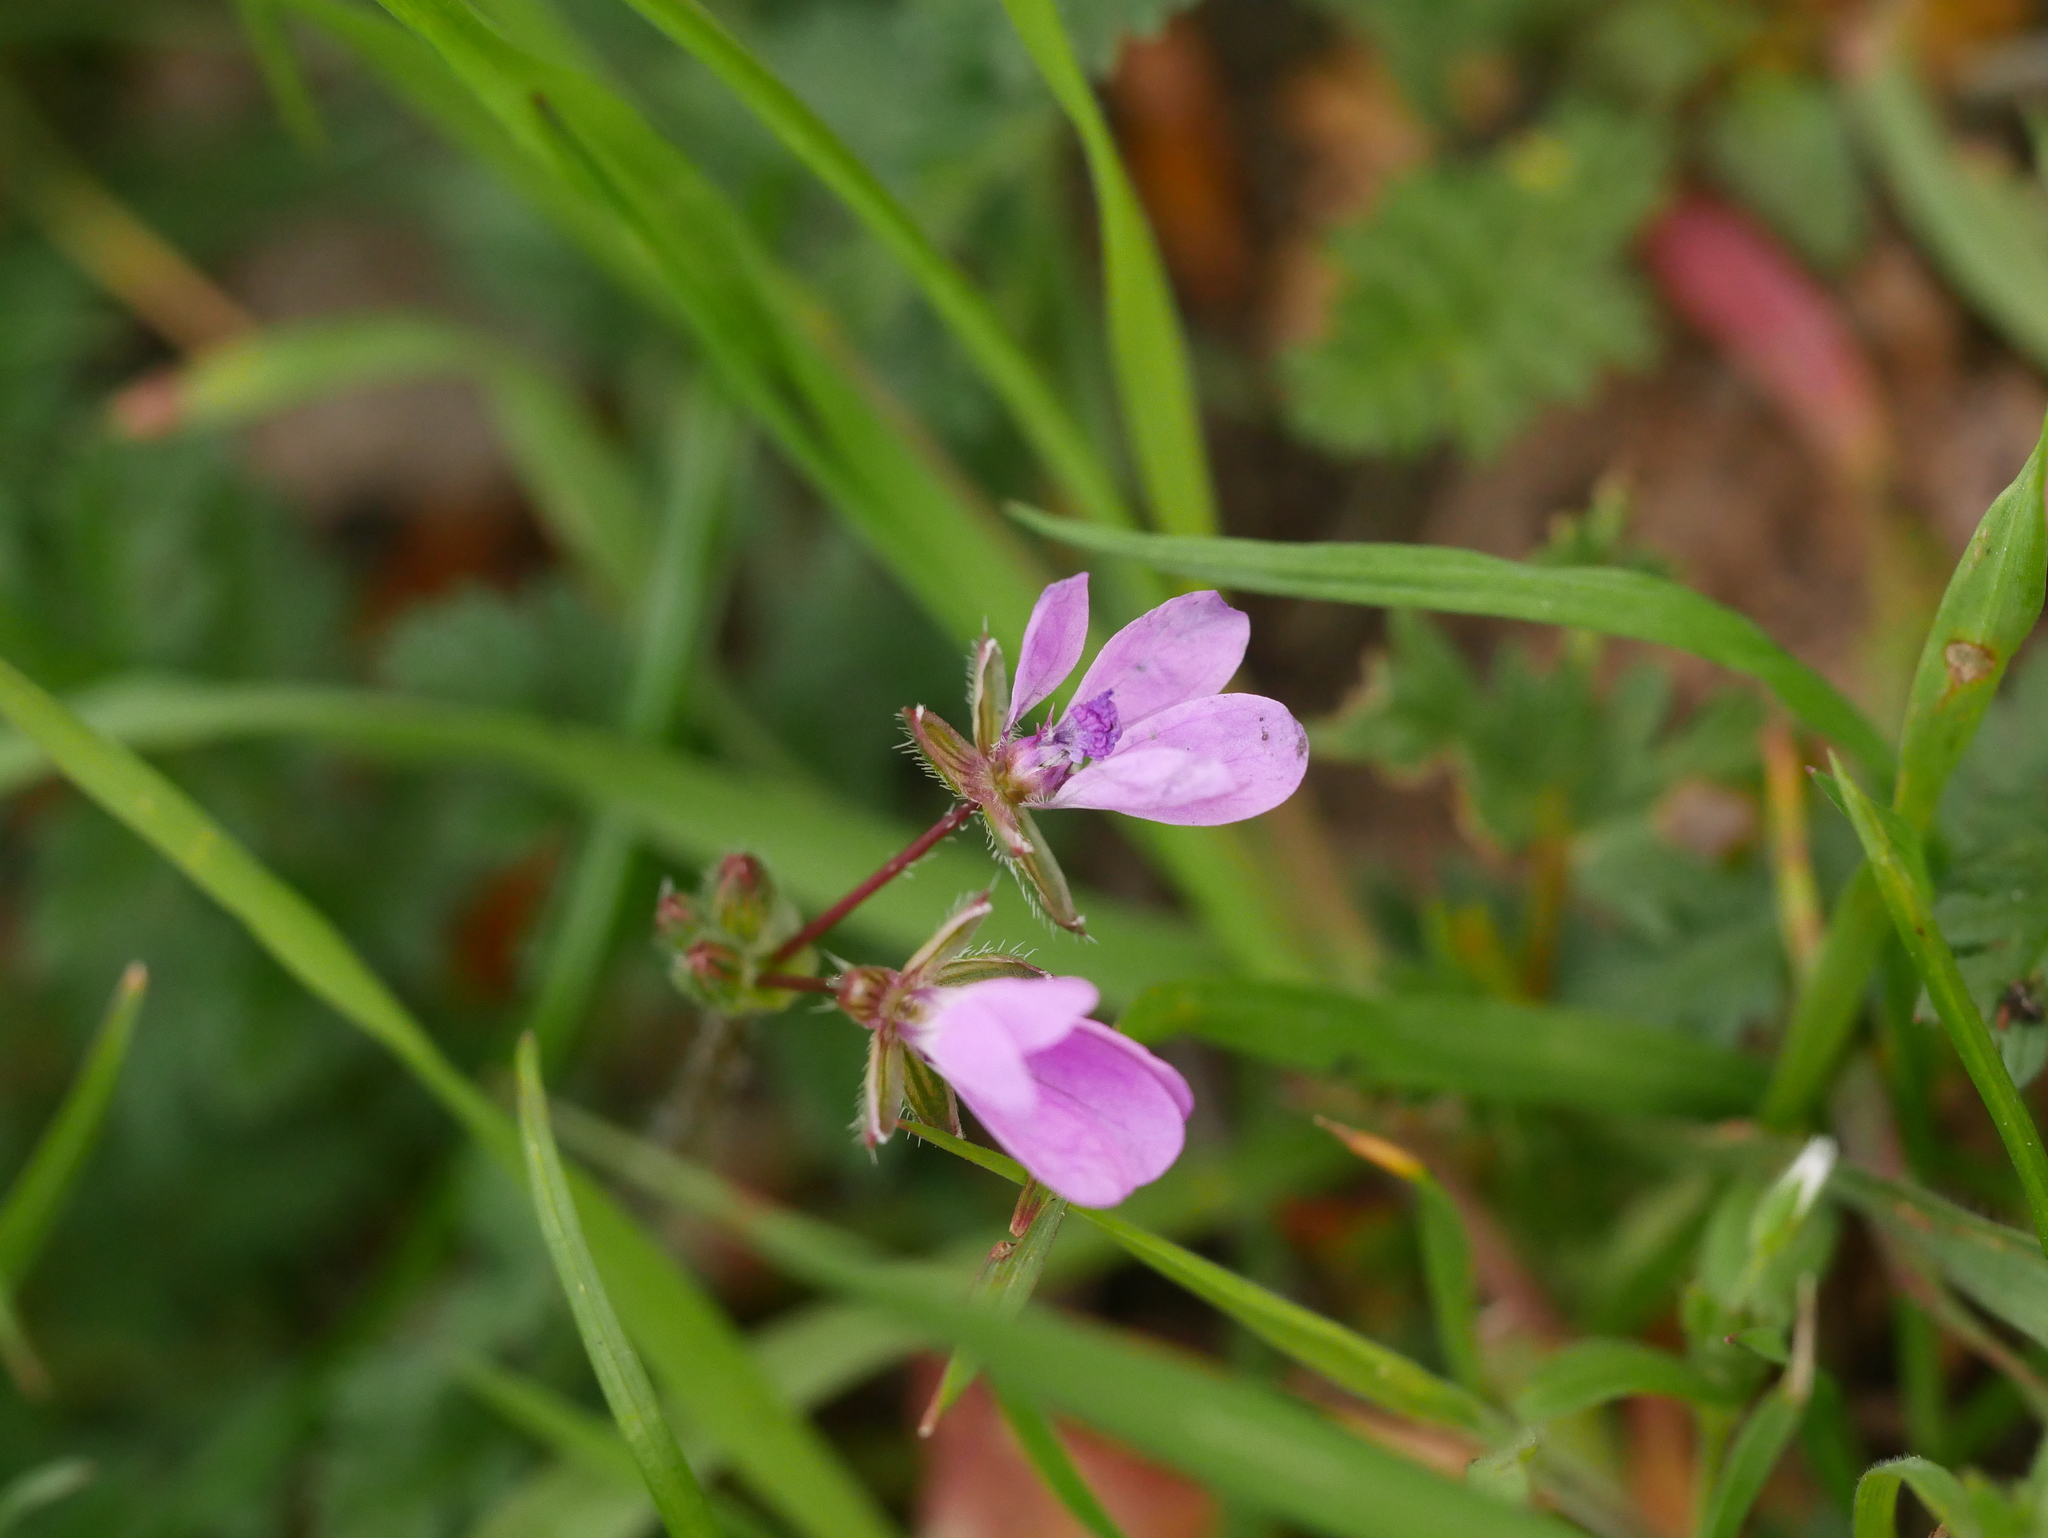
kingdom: Plantae
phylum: Tracheophyta
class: Magnoliopsida
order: Geraniales
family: Geraniaceae
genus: Erodium
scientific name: Erodium cicutarium
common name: Common stork's-bill
